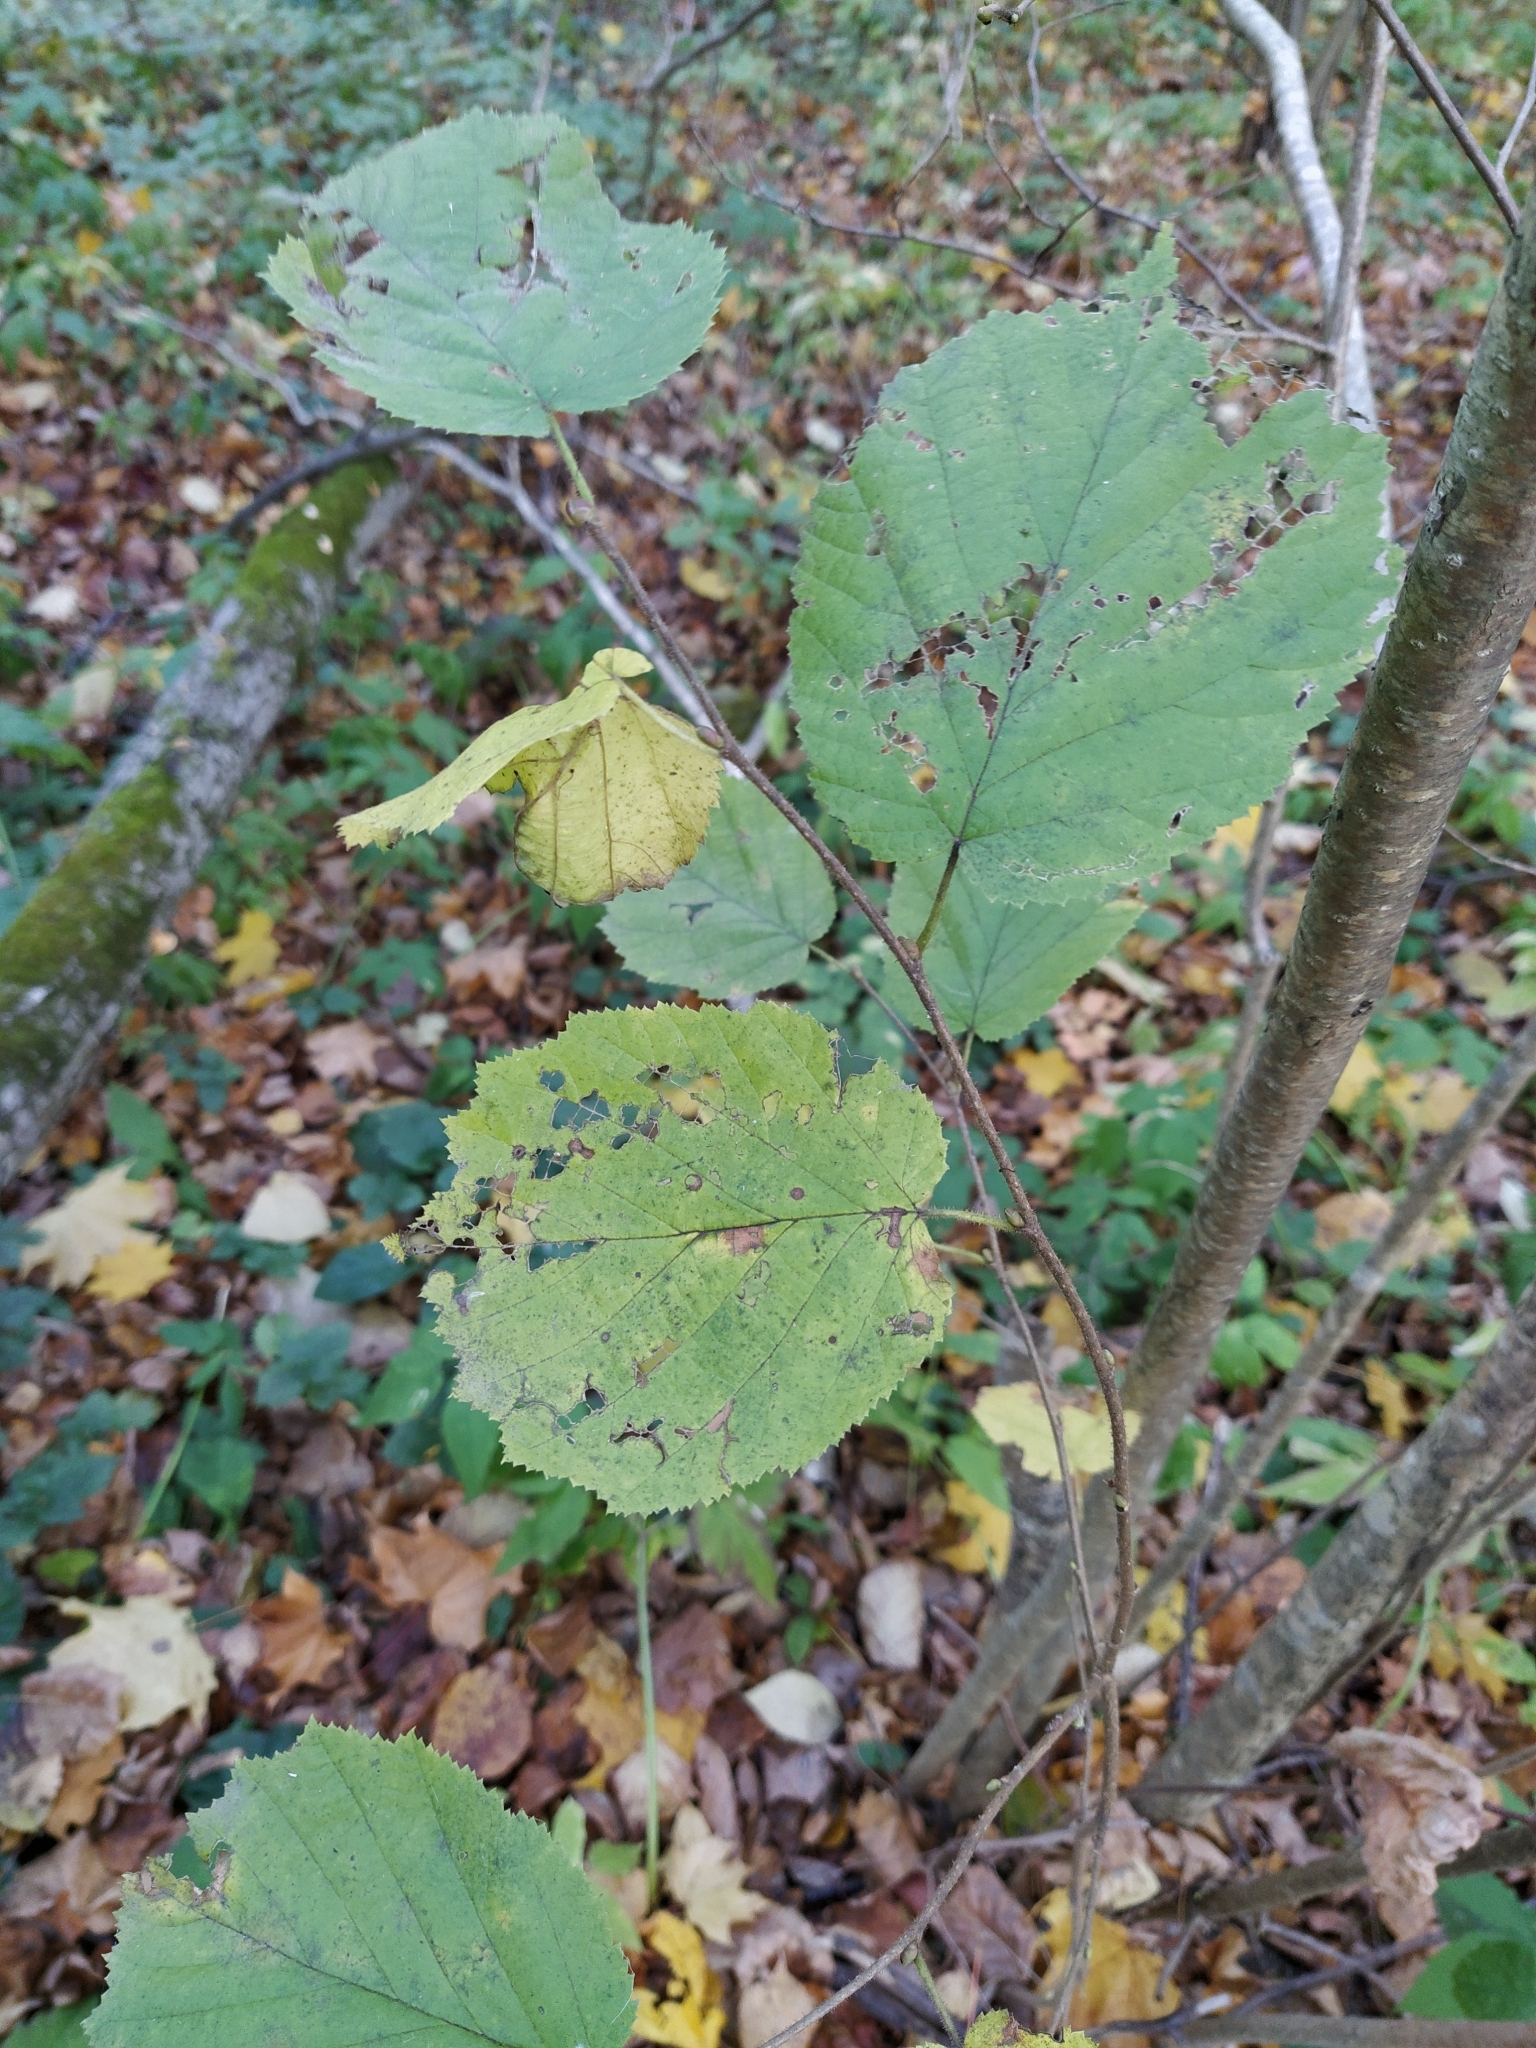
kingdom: Plantae
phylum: Tracheophyta
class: Magnoliopsida
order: Fagales
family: Betulaceae
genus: Corylus
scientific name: Corylus avellana
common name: European hazel
